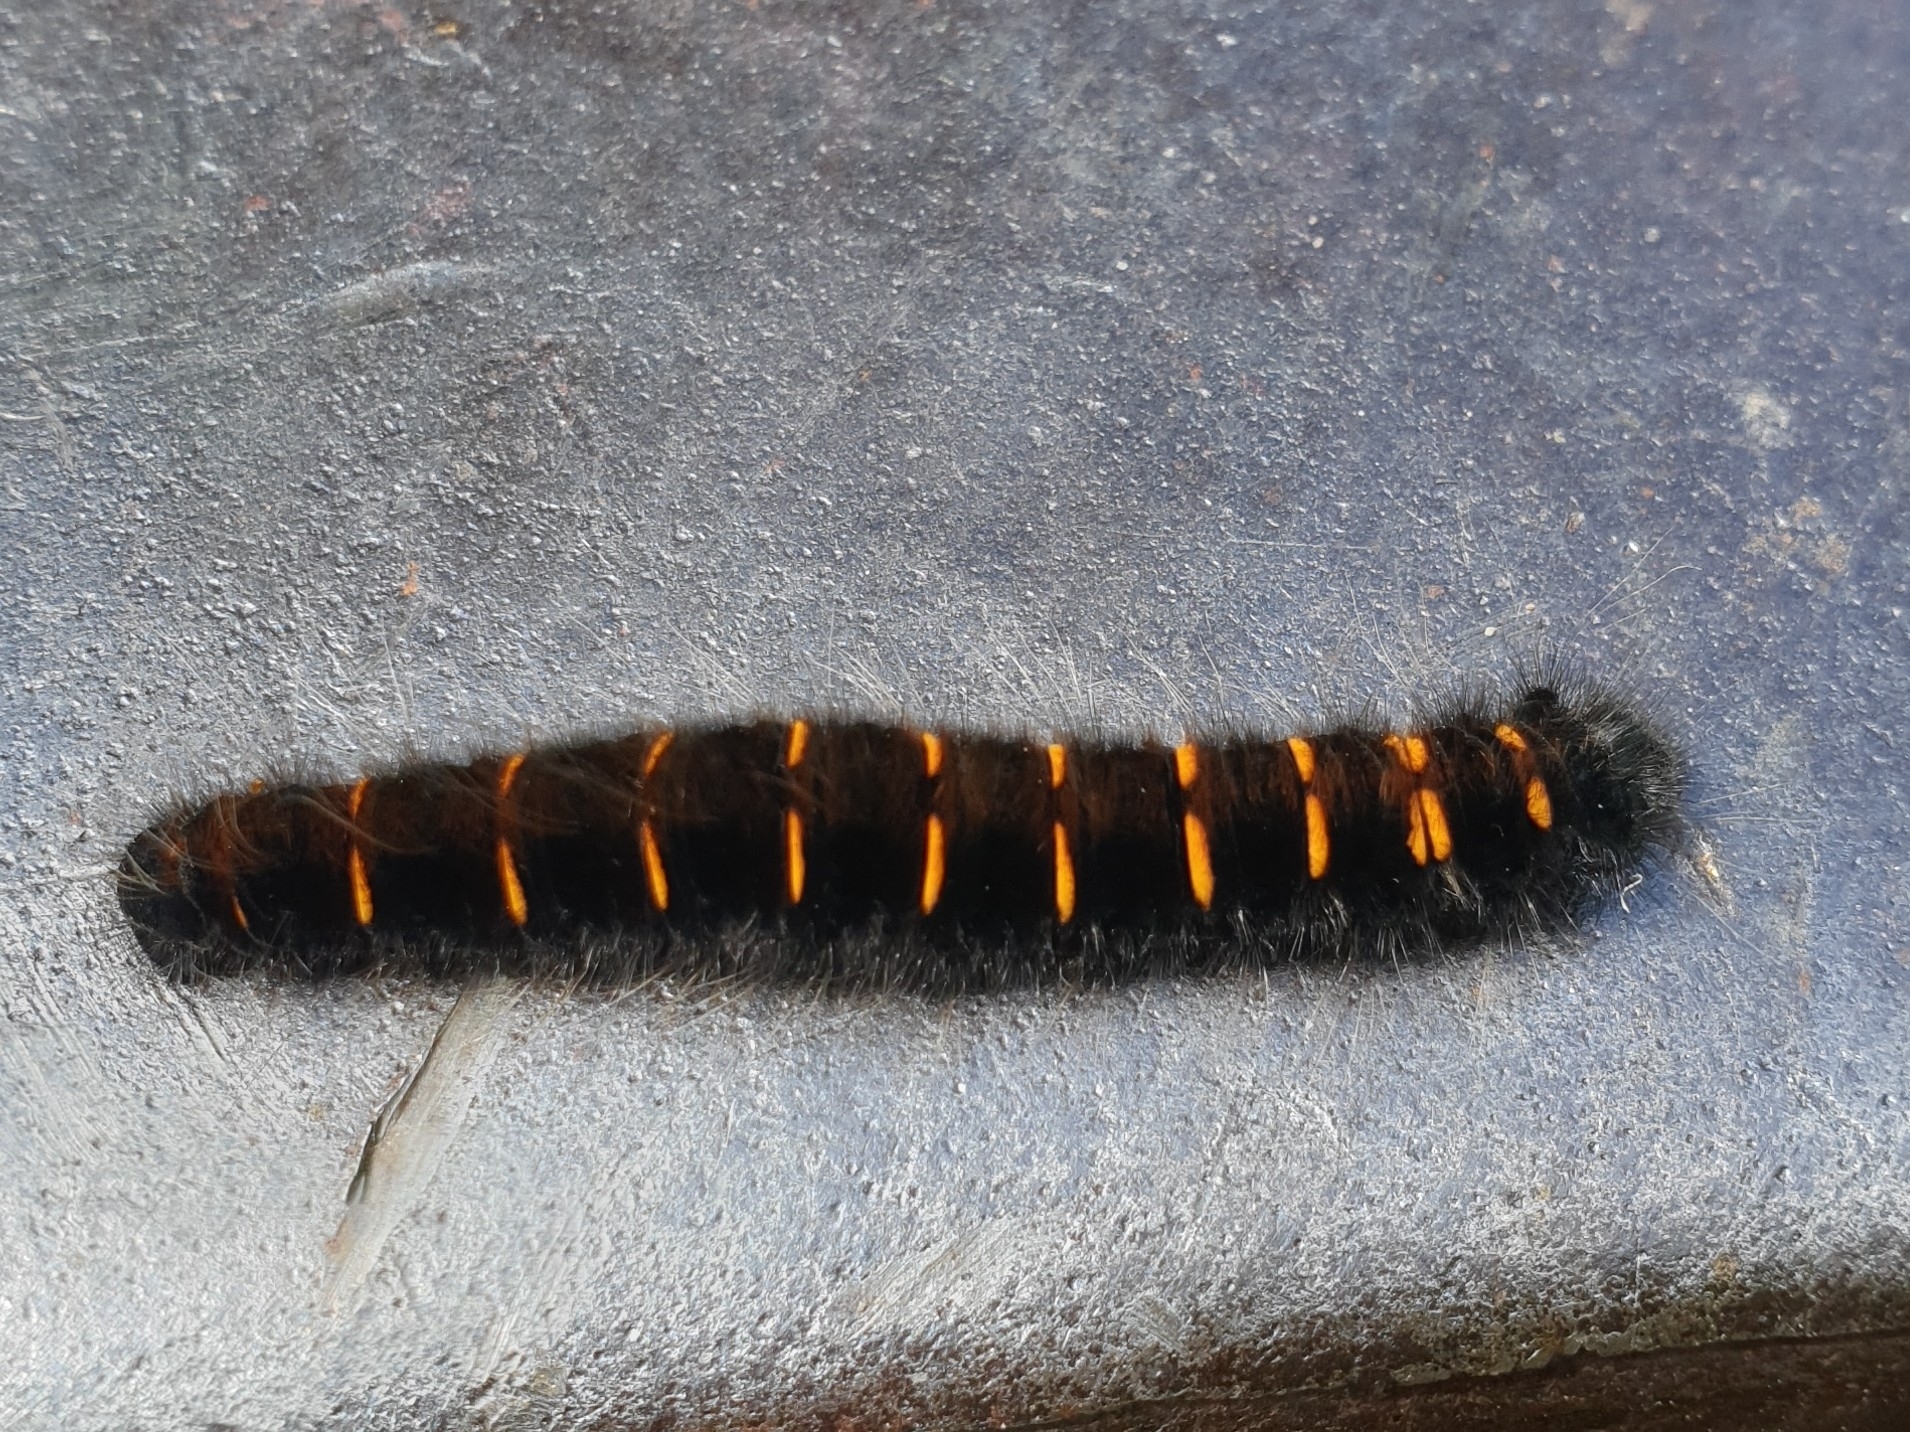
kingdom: Animalia
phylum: Arthropoda
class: Insecta
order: Lepidoptera
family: Lasiocampidae
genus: Macrothylacia
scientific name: Macrothylacia rubi
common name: Fox moth
